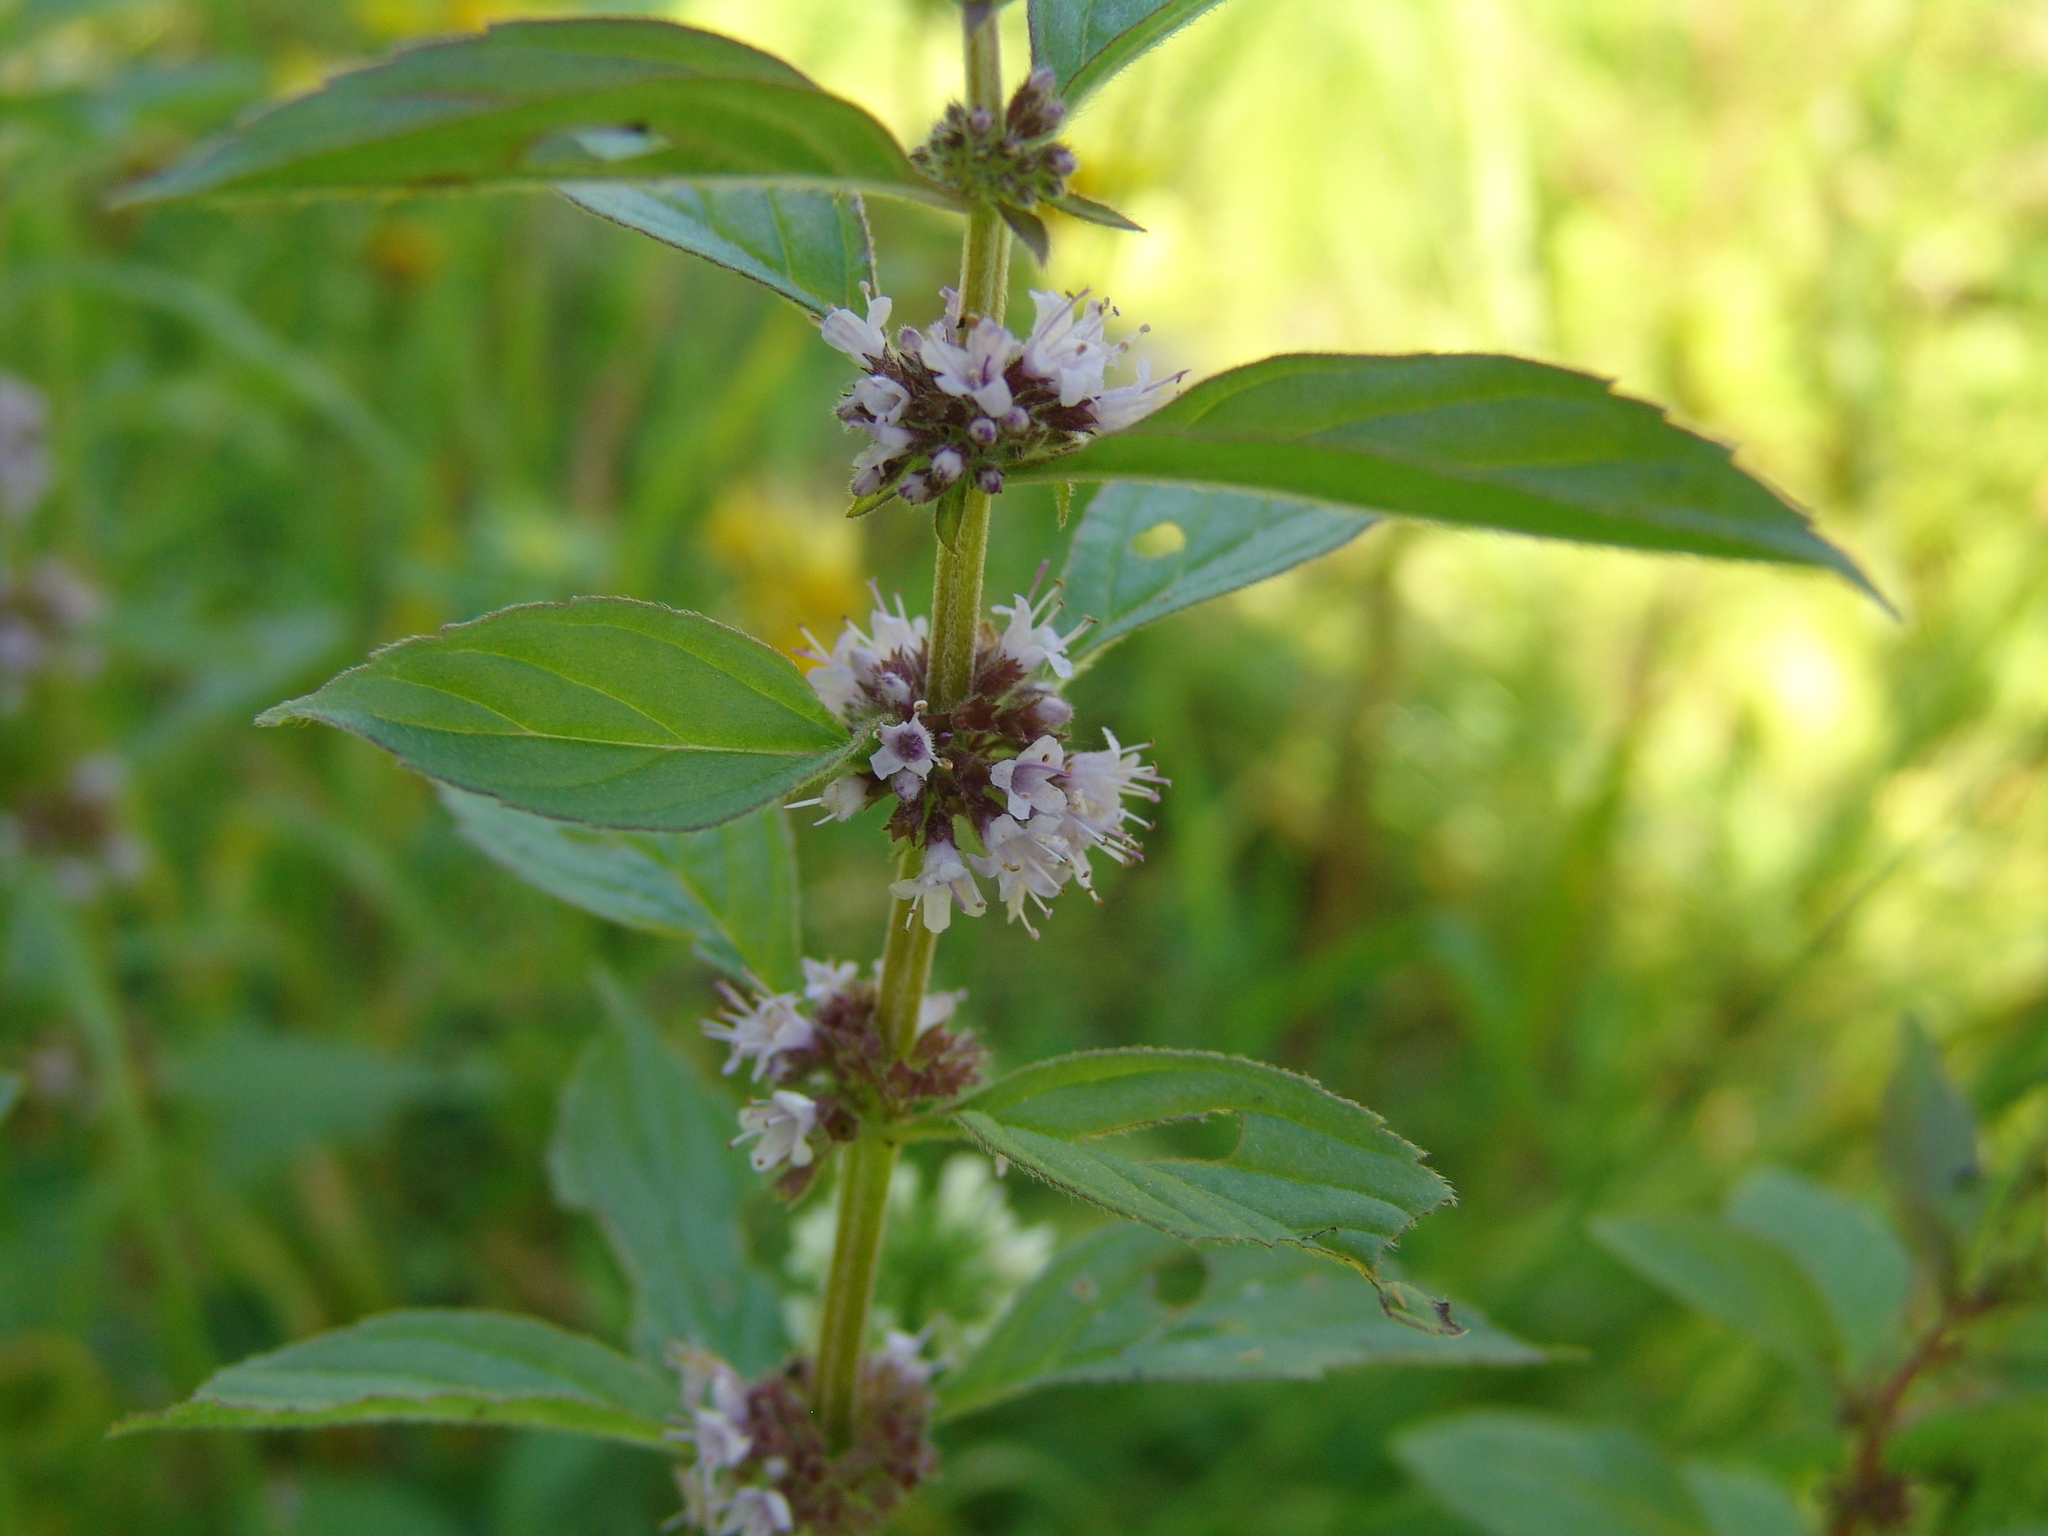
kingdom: Plantae
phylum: Tracheophyta
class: Magnoliopsida
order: Lamiales
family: Lamiaceae
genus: Mentha
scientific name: Mentha arvensis
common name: Corn mint
